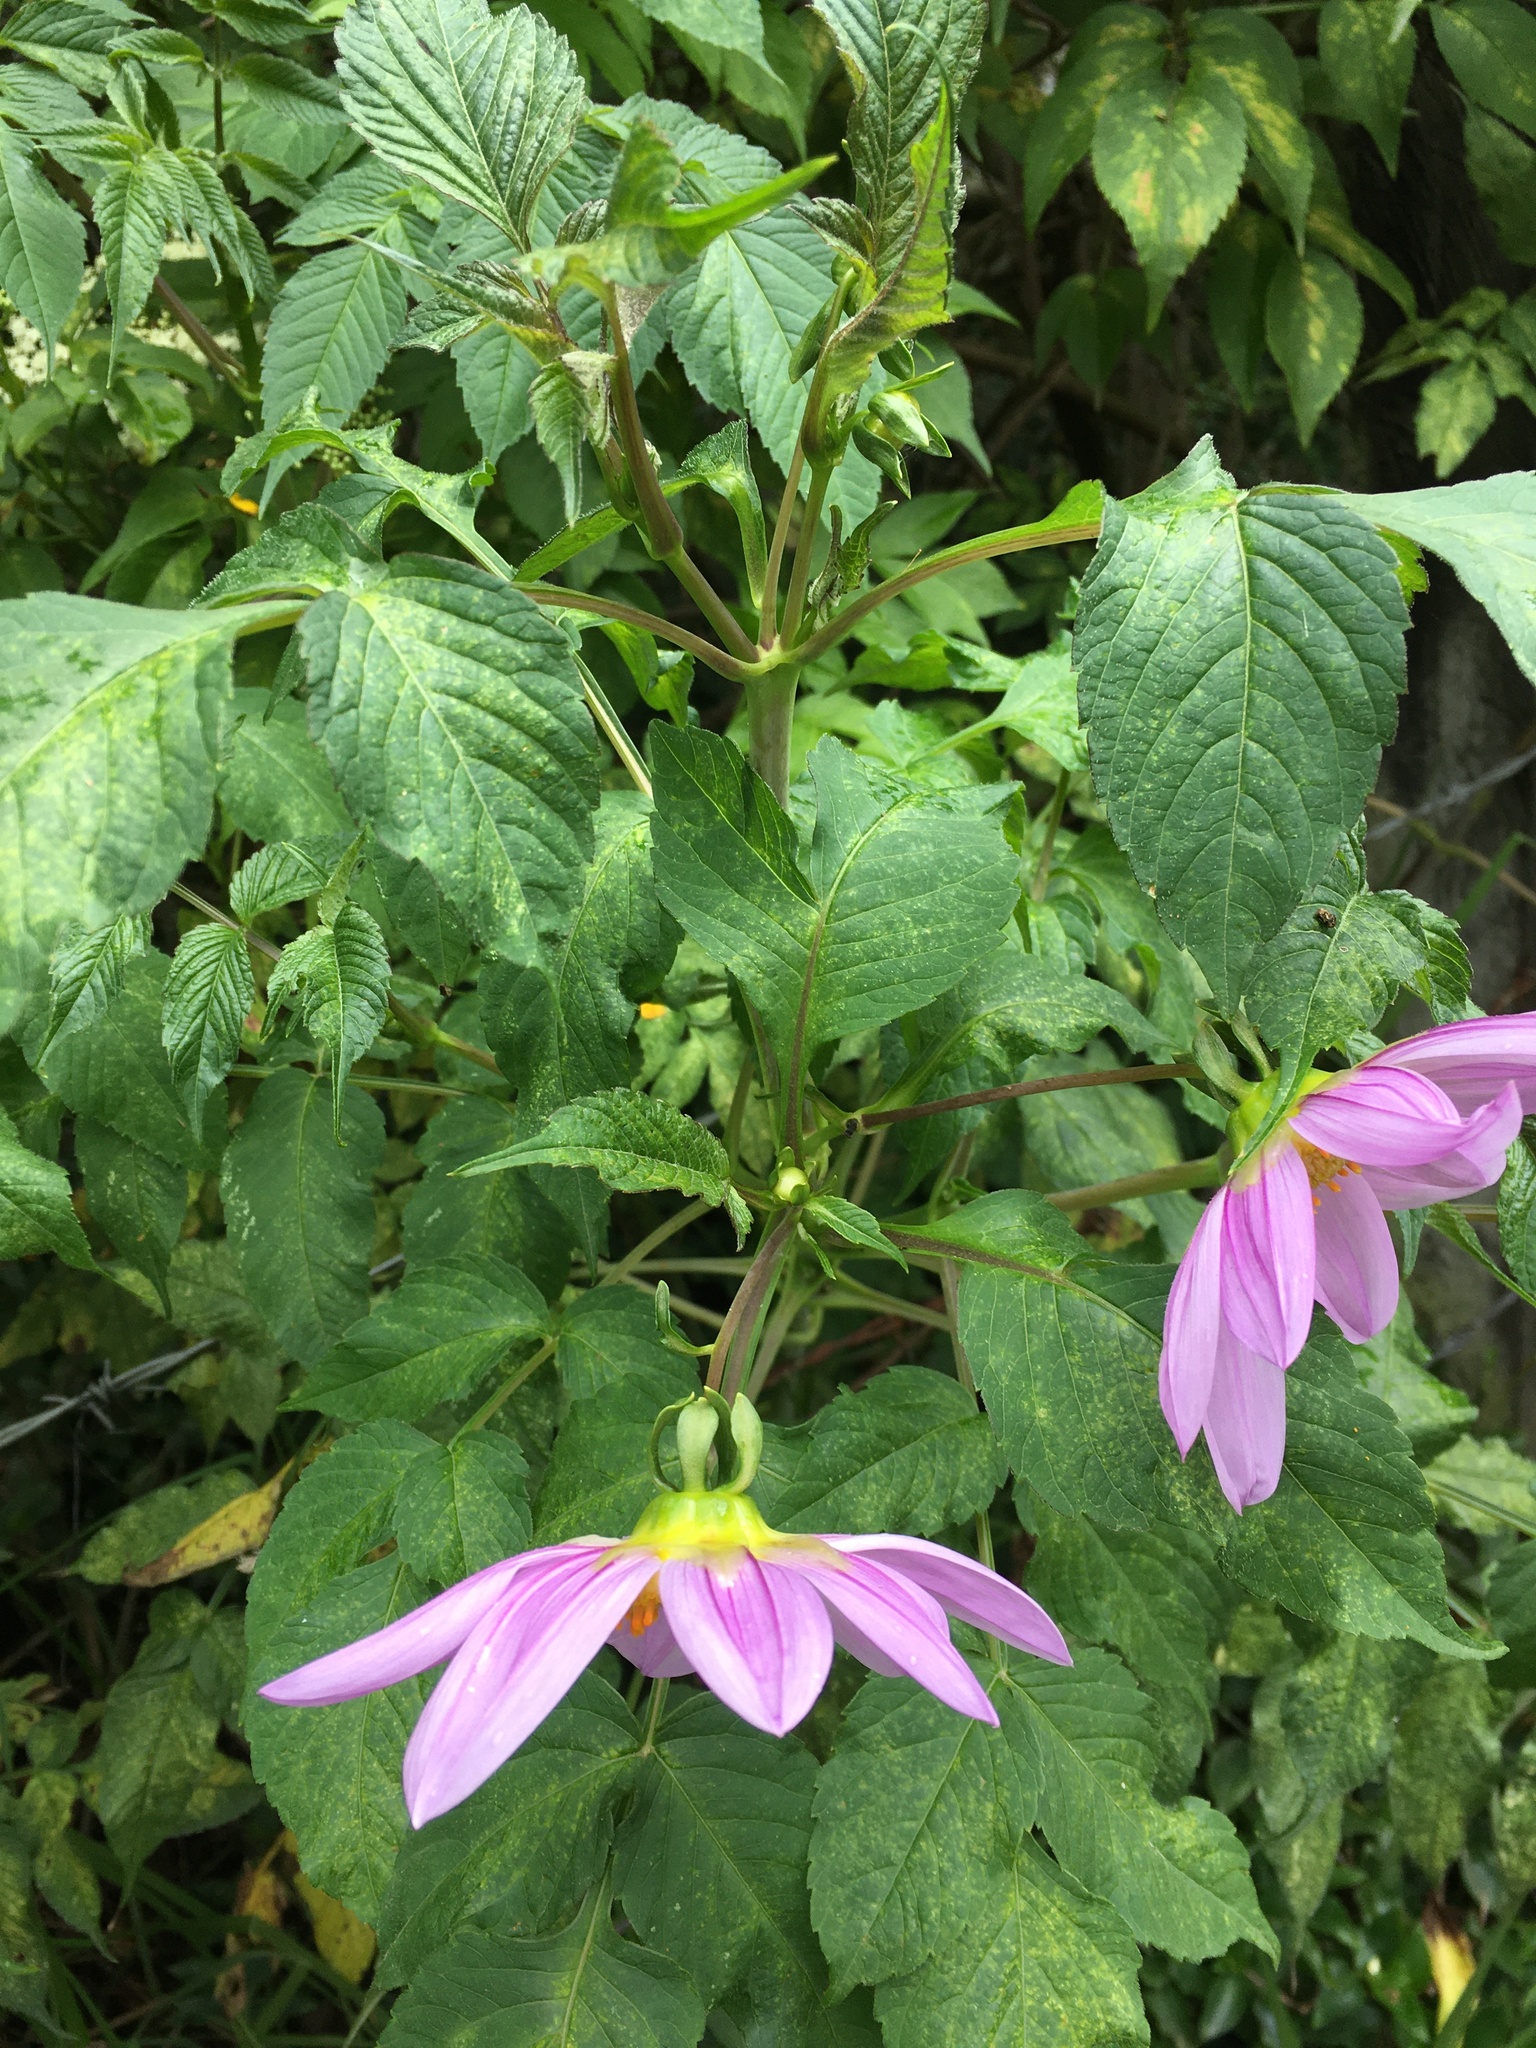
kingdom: Plantae
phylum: Tracheophyta
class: Magnoliopsida
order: Asterales
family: Asteraceae
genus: Dahlia
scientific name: Dahlia imperialis
